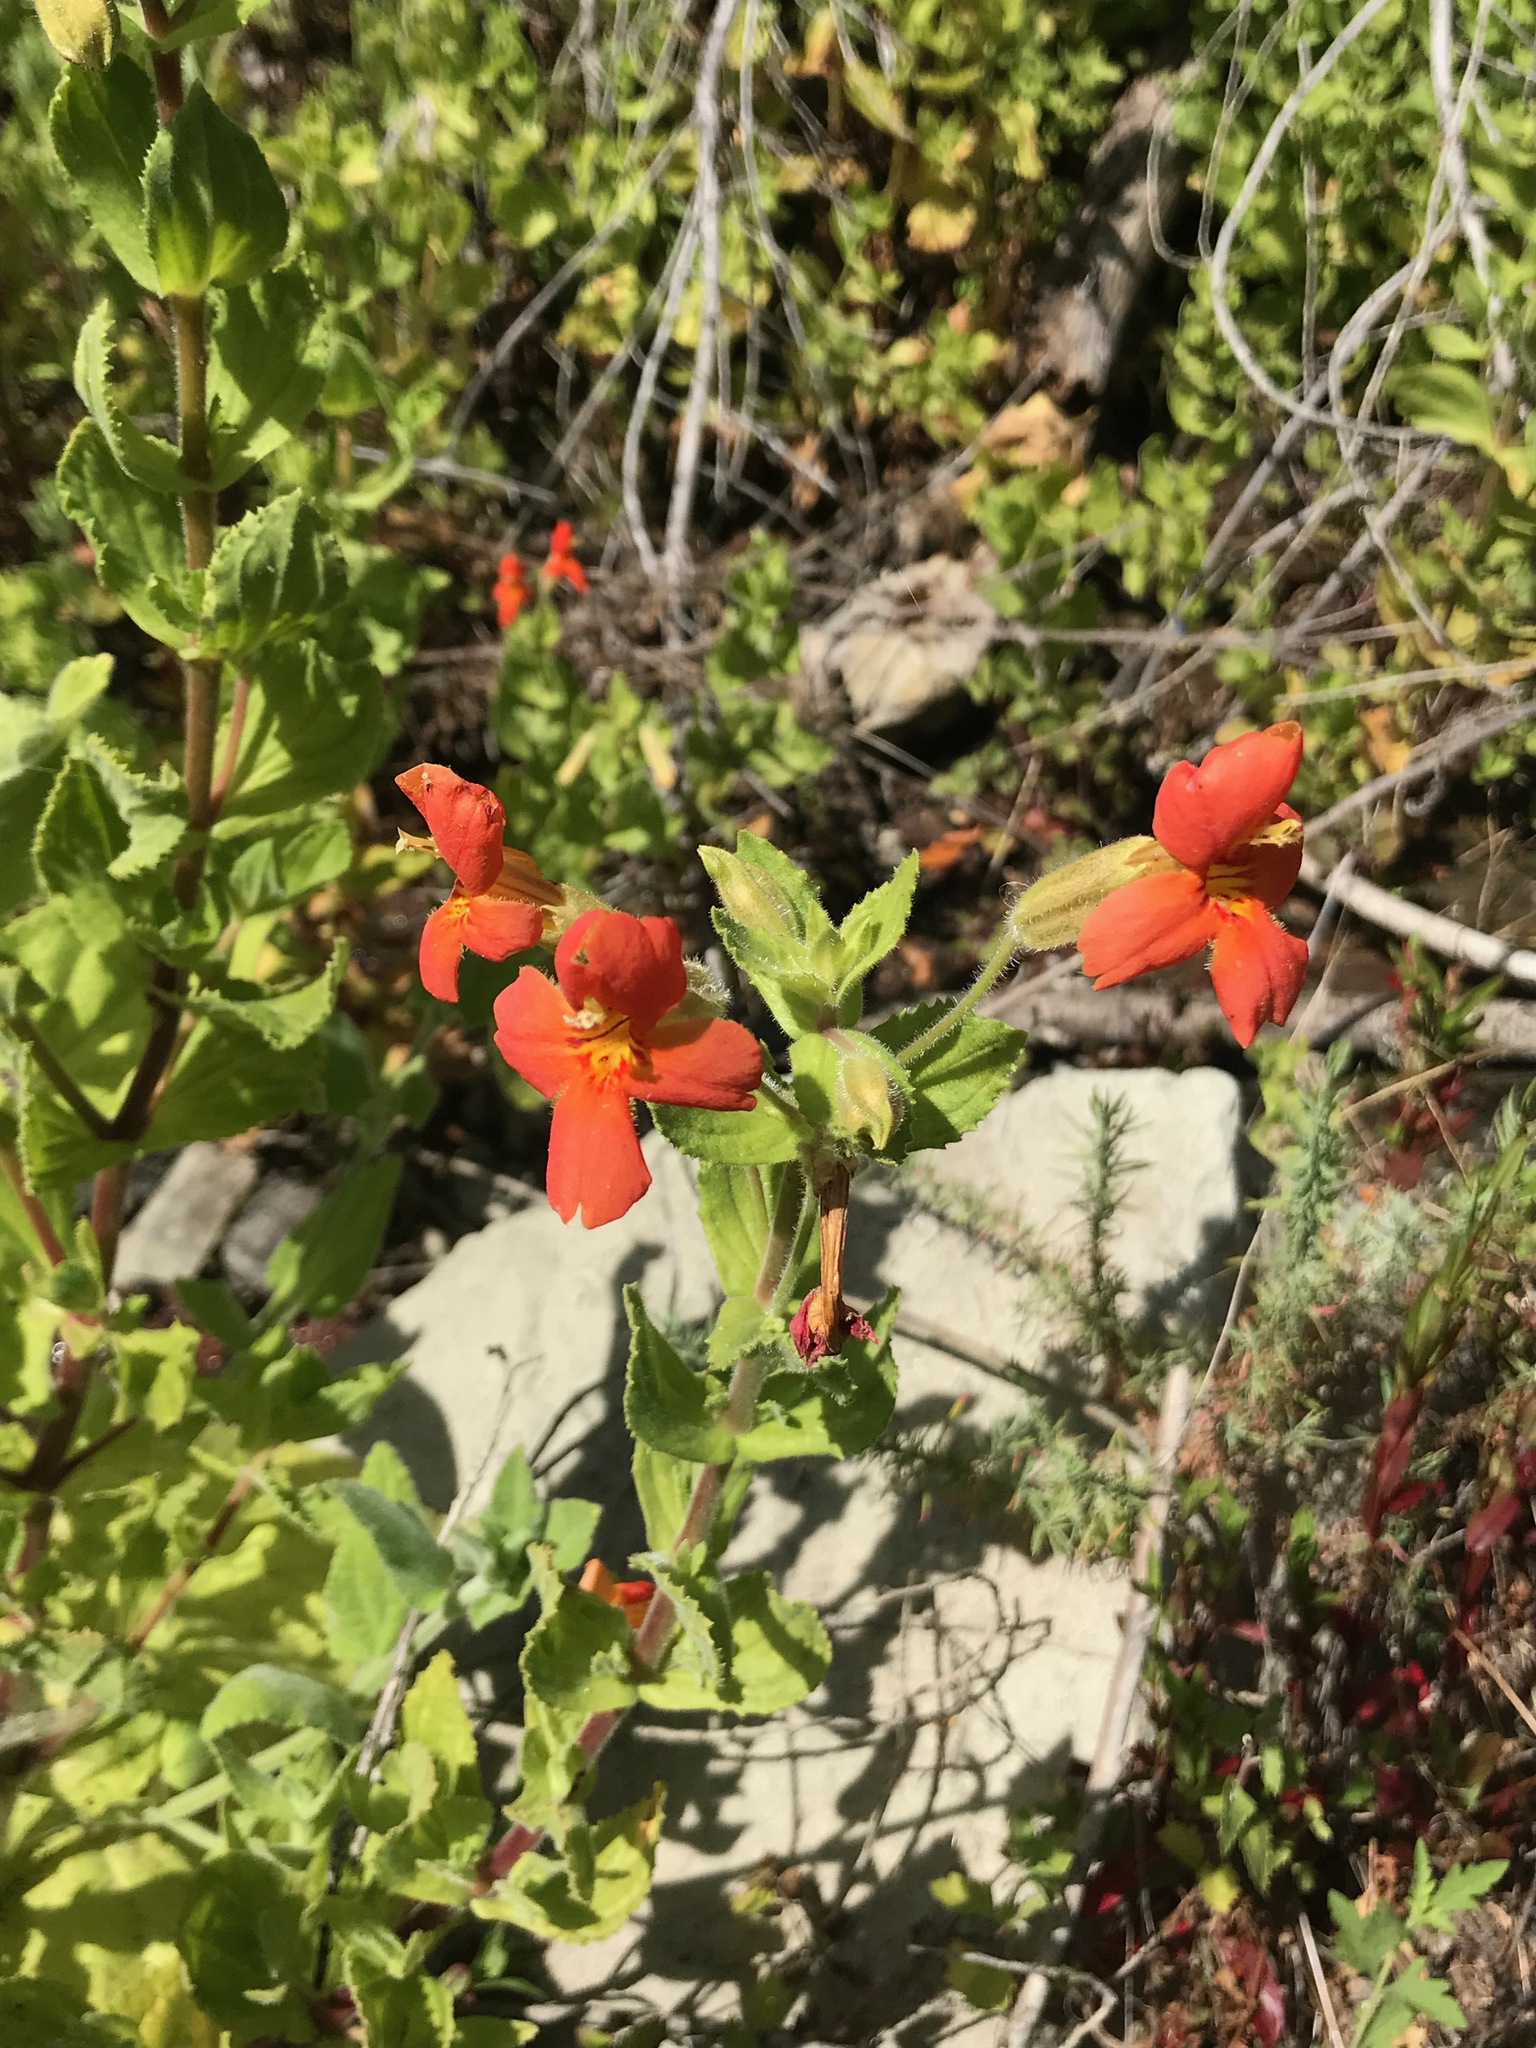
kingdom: Plantae
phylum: Tracheophyta
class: Magnoliopsida
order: Lamiales
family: Phrymaceae
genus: Erythranthe
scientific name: Erythranthe cardinalis
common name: Scarlet monkey-flower
